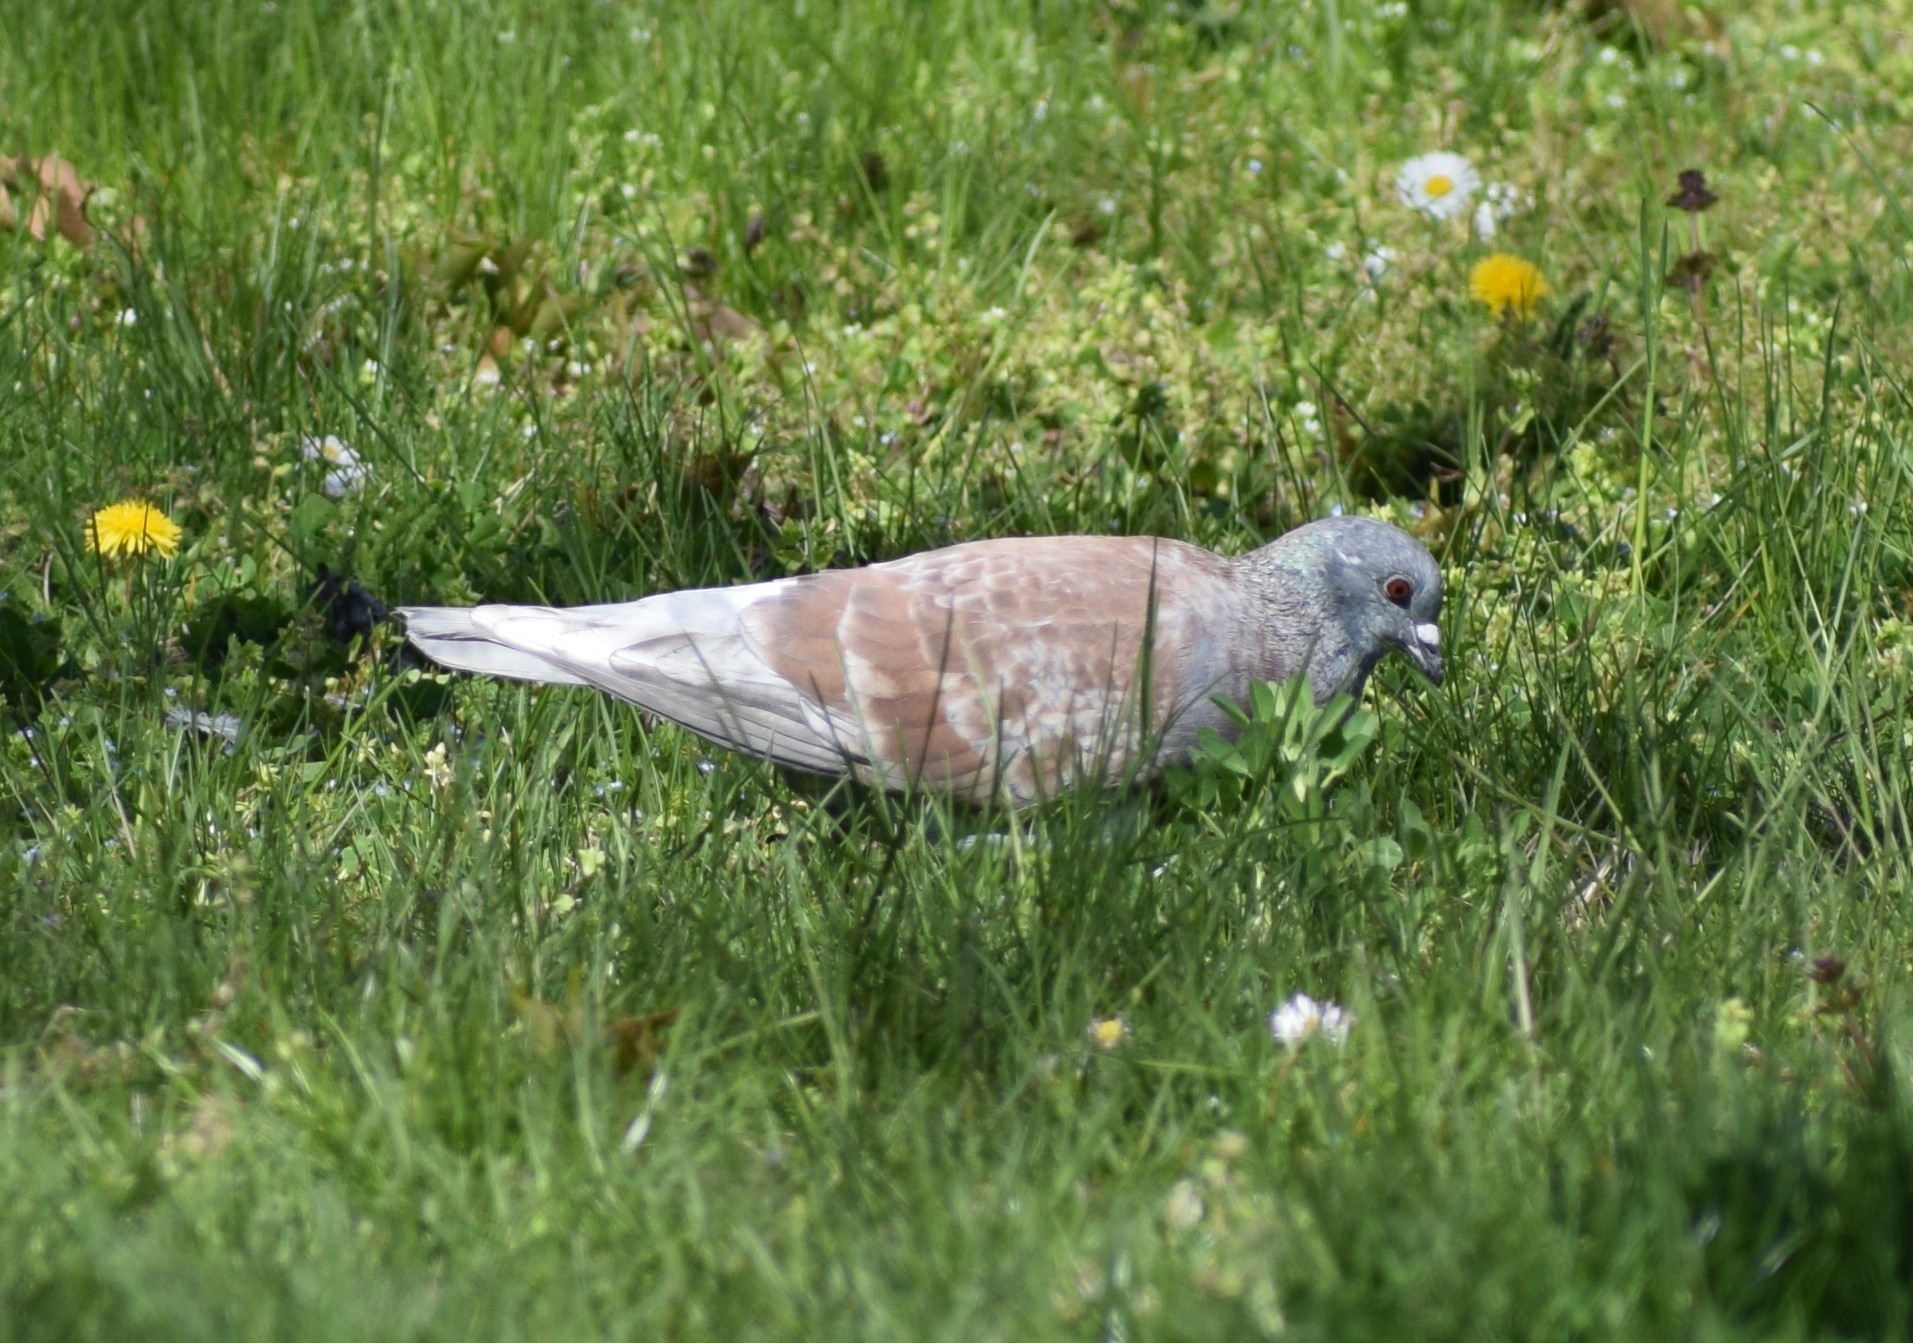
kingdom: Animalia
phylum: Chordata
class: Aves
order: Columbiformes
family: Columbidae
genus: Columba
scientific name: Columba livia
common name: Rock pigeon
